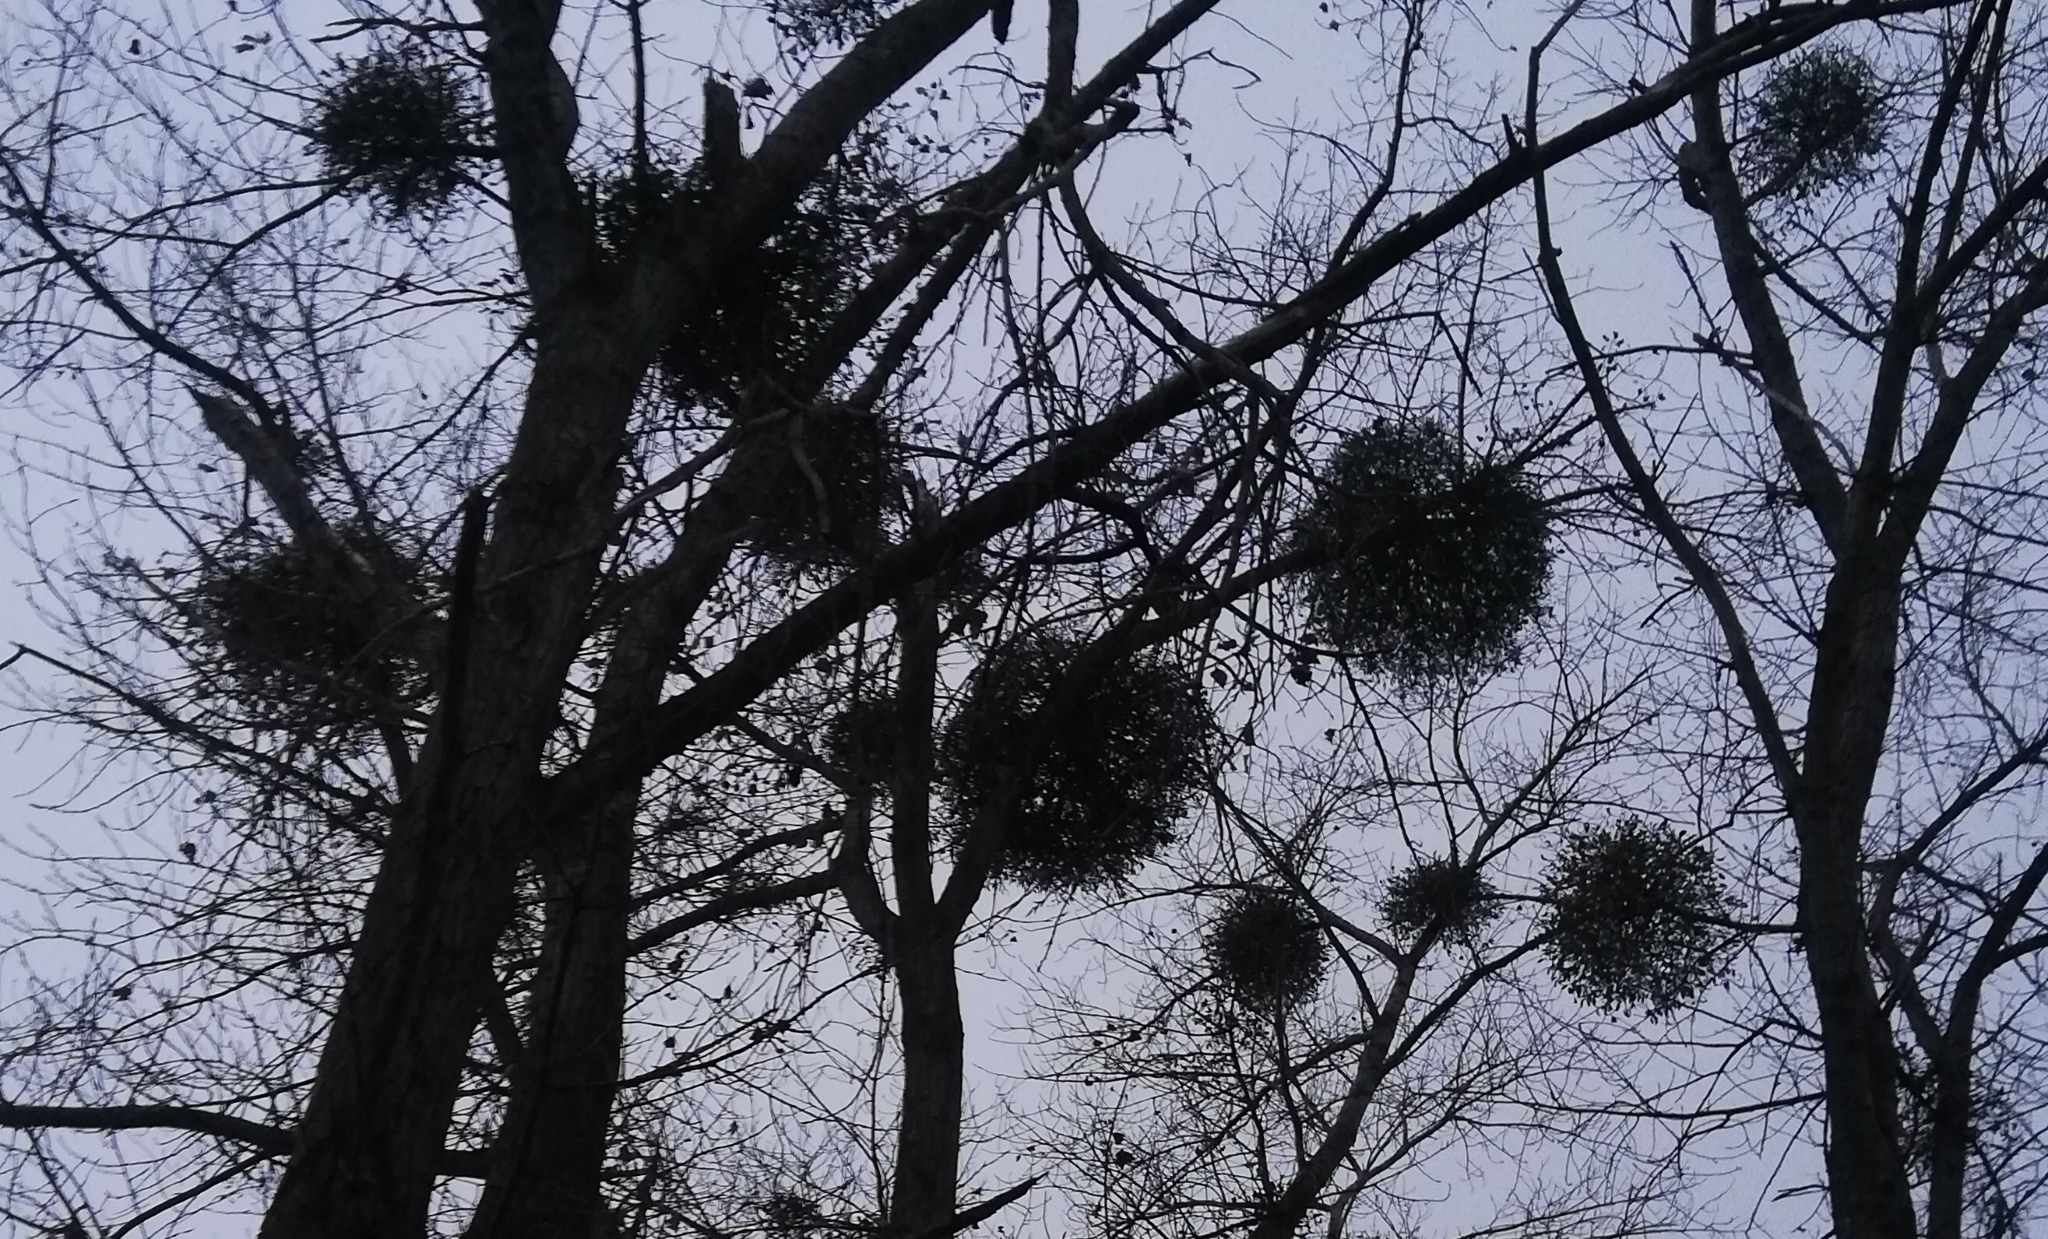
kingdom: Plantae
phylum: Tracheophyta
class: Magnoliopsida
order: Santalales
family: Viscaceae
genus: Viscum
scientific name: Viscum album
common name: Mistletoe
